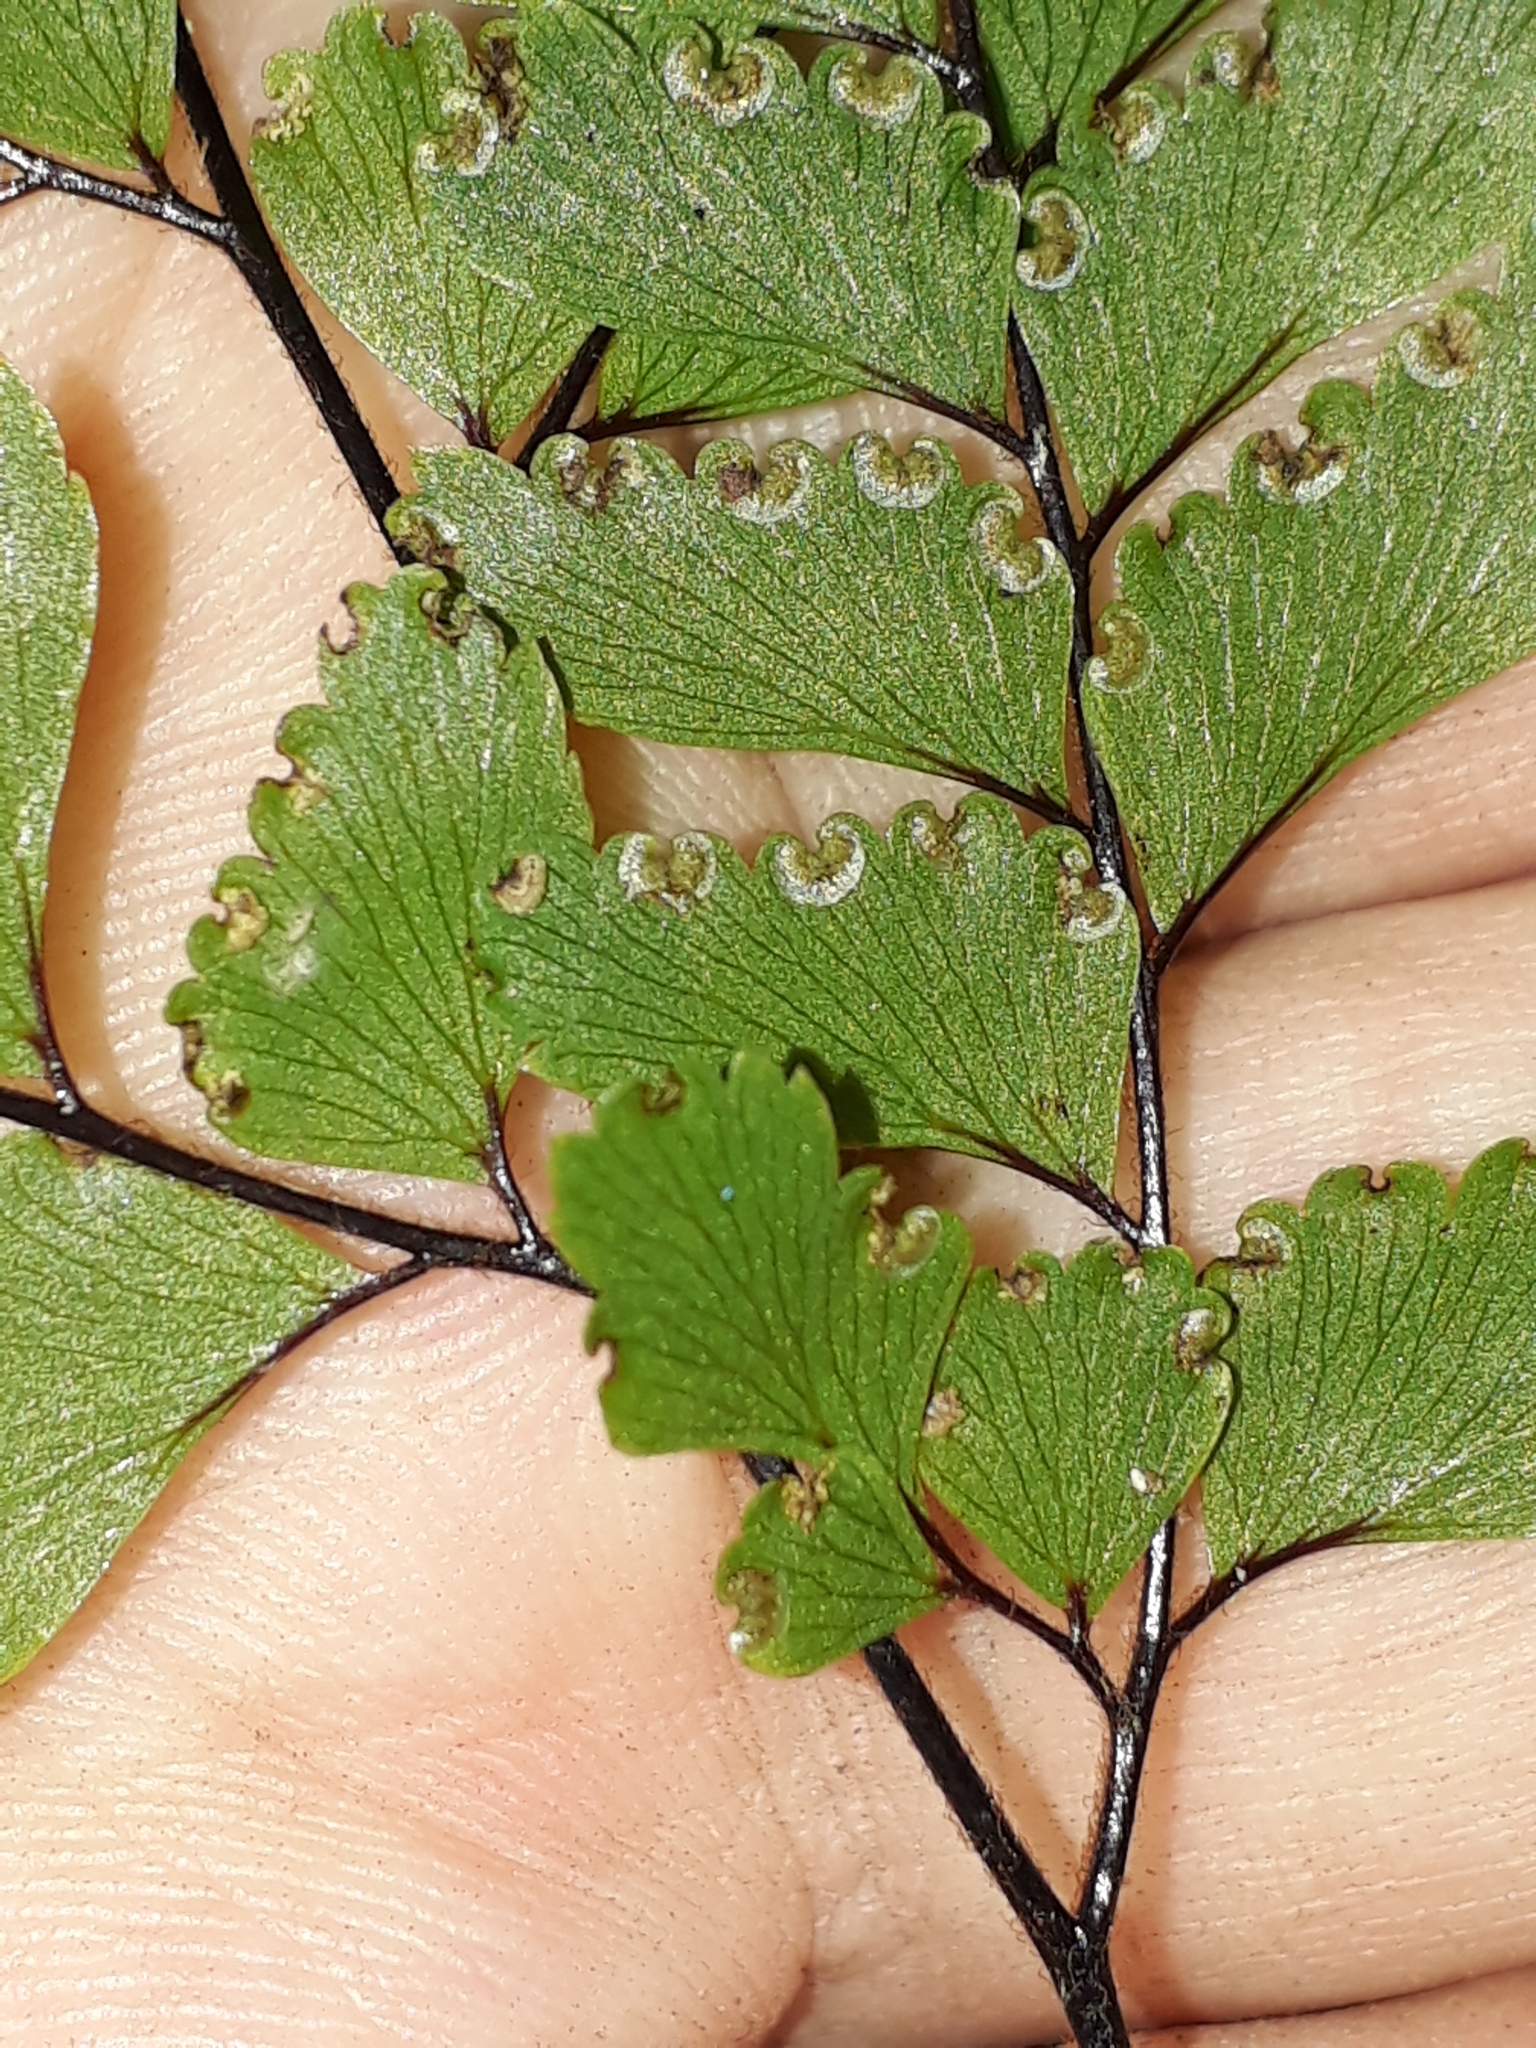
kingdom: Plantae
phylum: Tracheophyta
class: Polypodiopsida
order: Polypodiales
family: Pteridaceae
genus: Adiantum
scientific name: Adiantum fulvum
